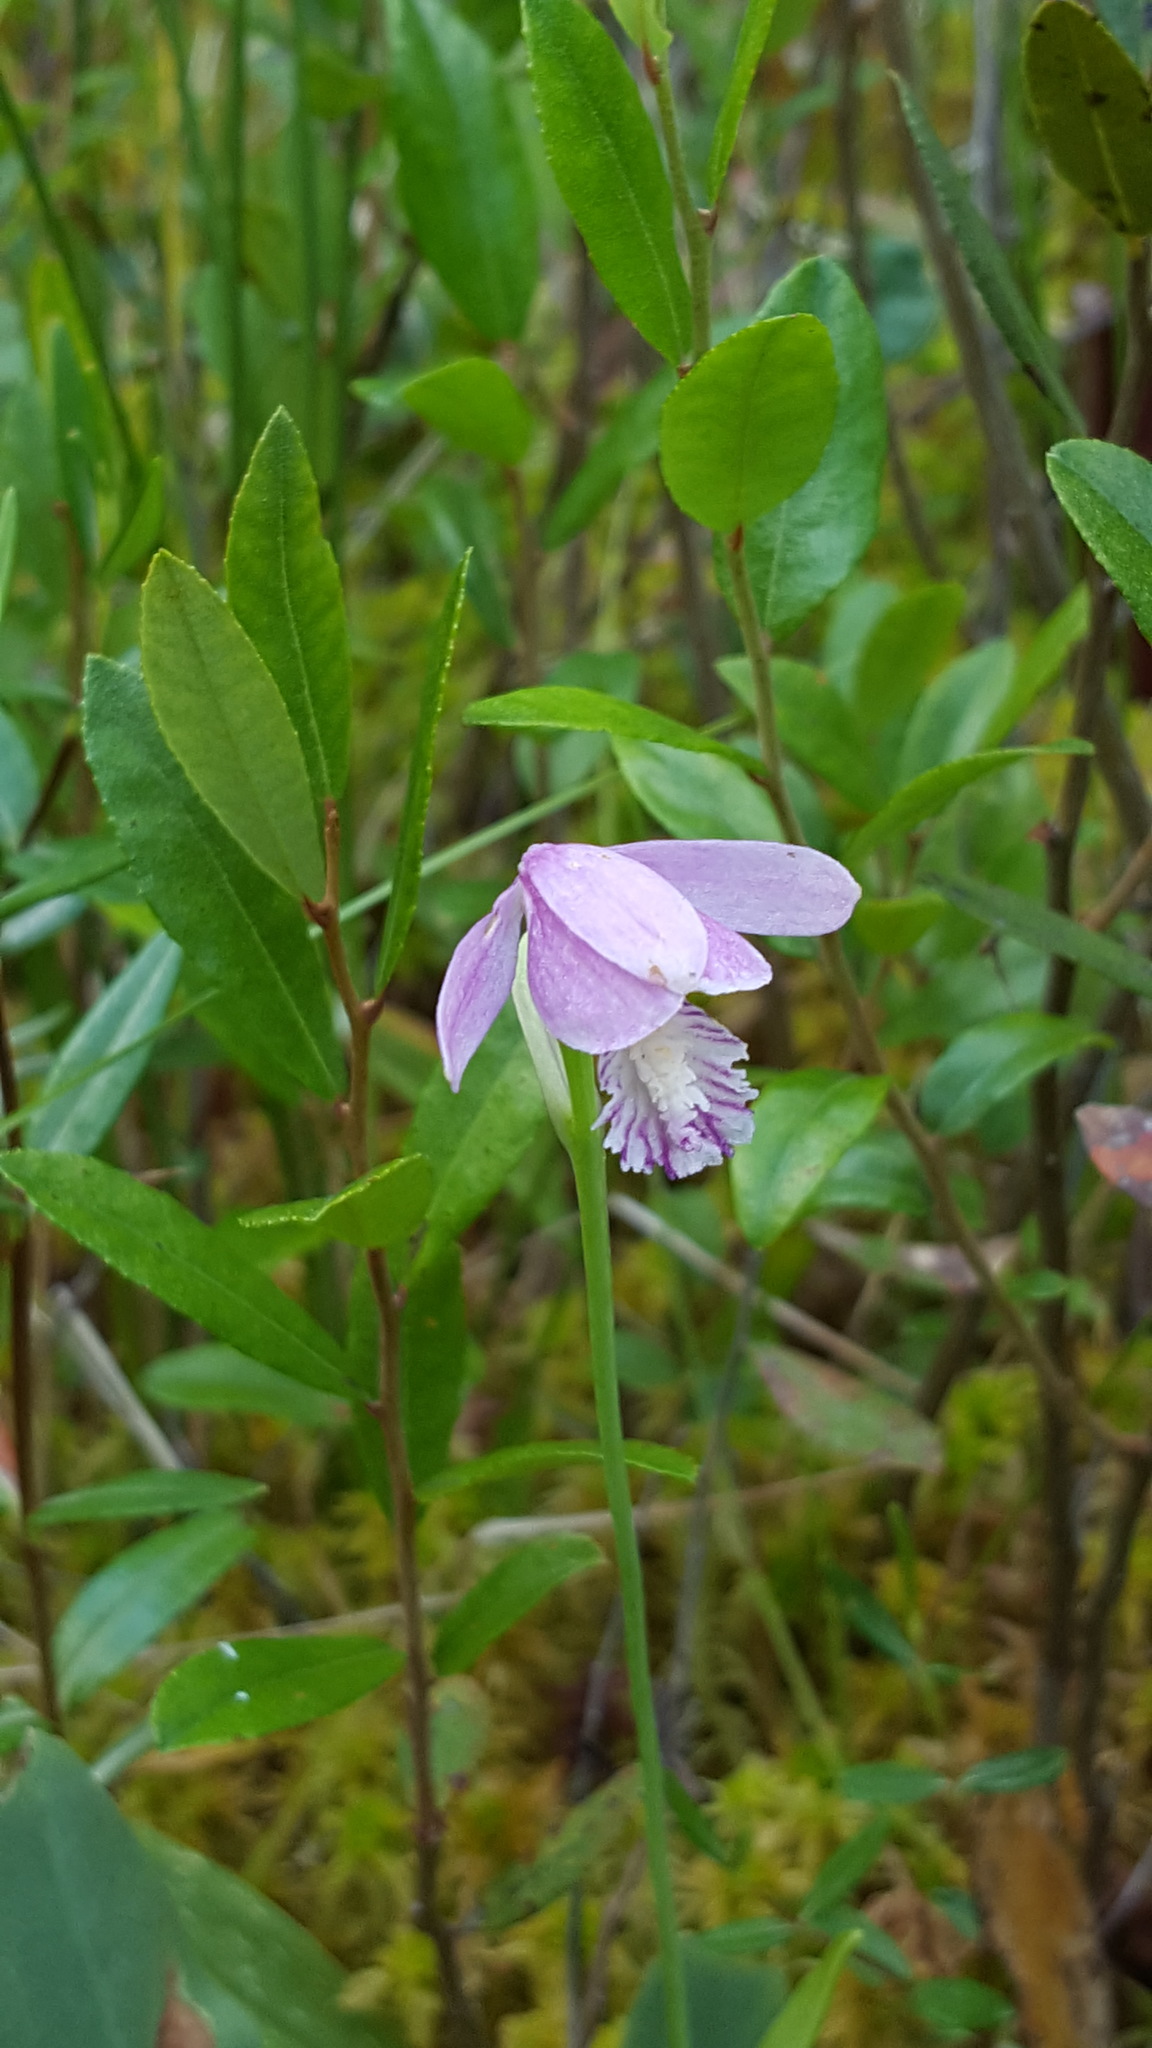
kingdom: Plantae
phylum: Tracheophyta
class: Liliopsida
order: Asparagales
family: Orchidaceae
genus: Pogonia
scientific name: Pogonia ophioglossoides
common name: Rose pogonia
